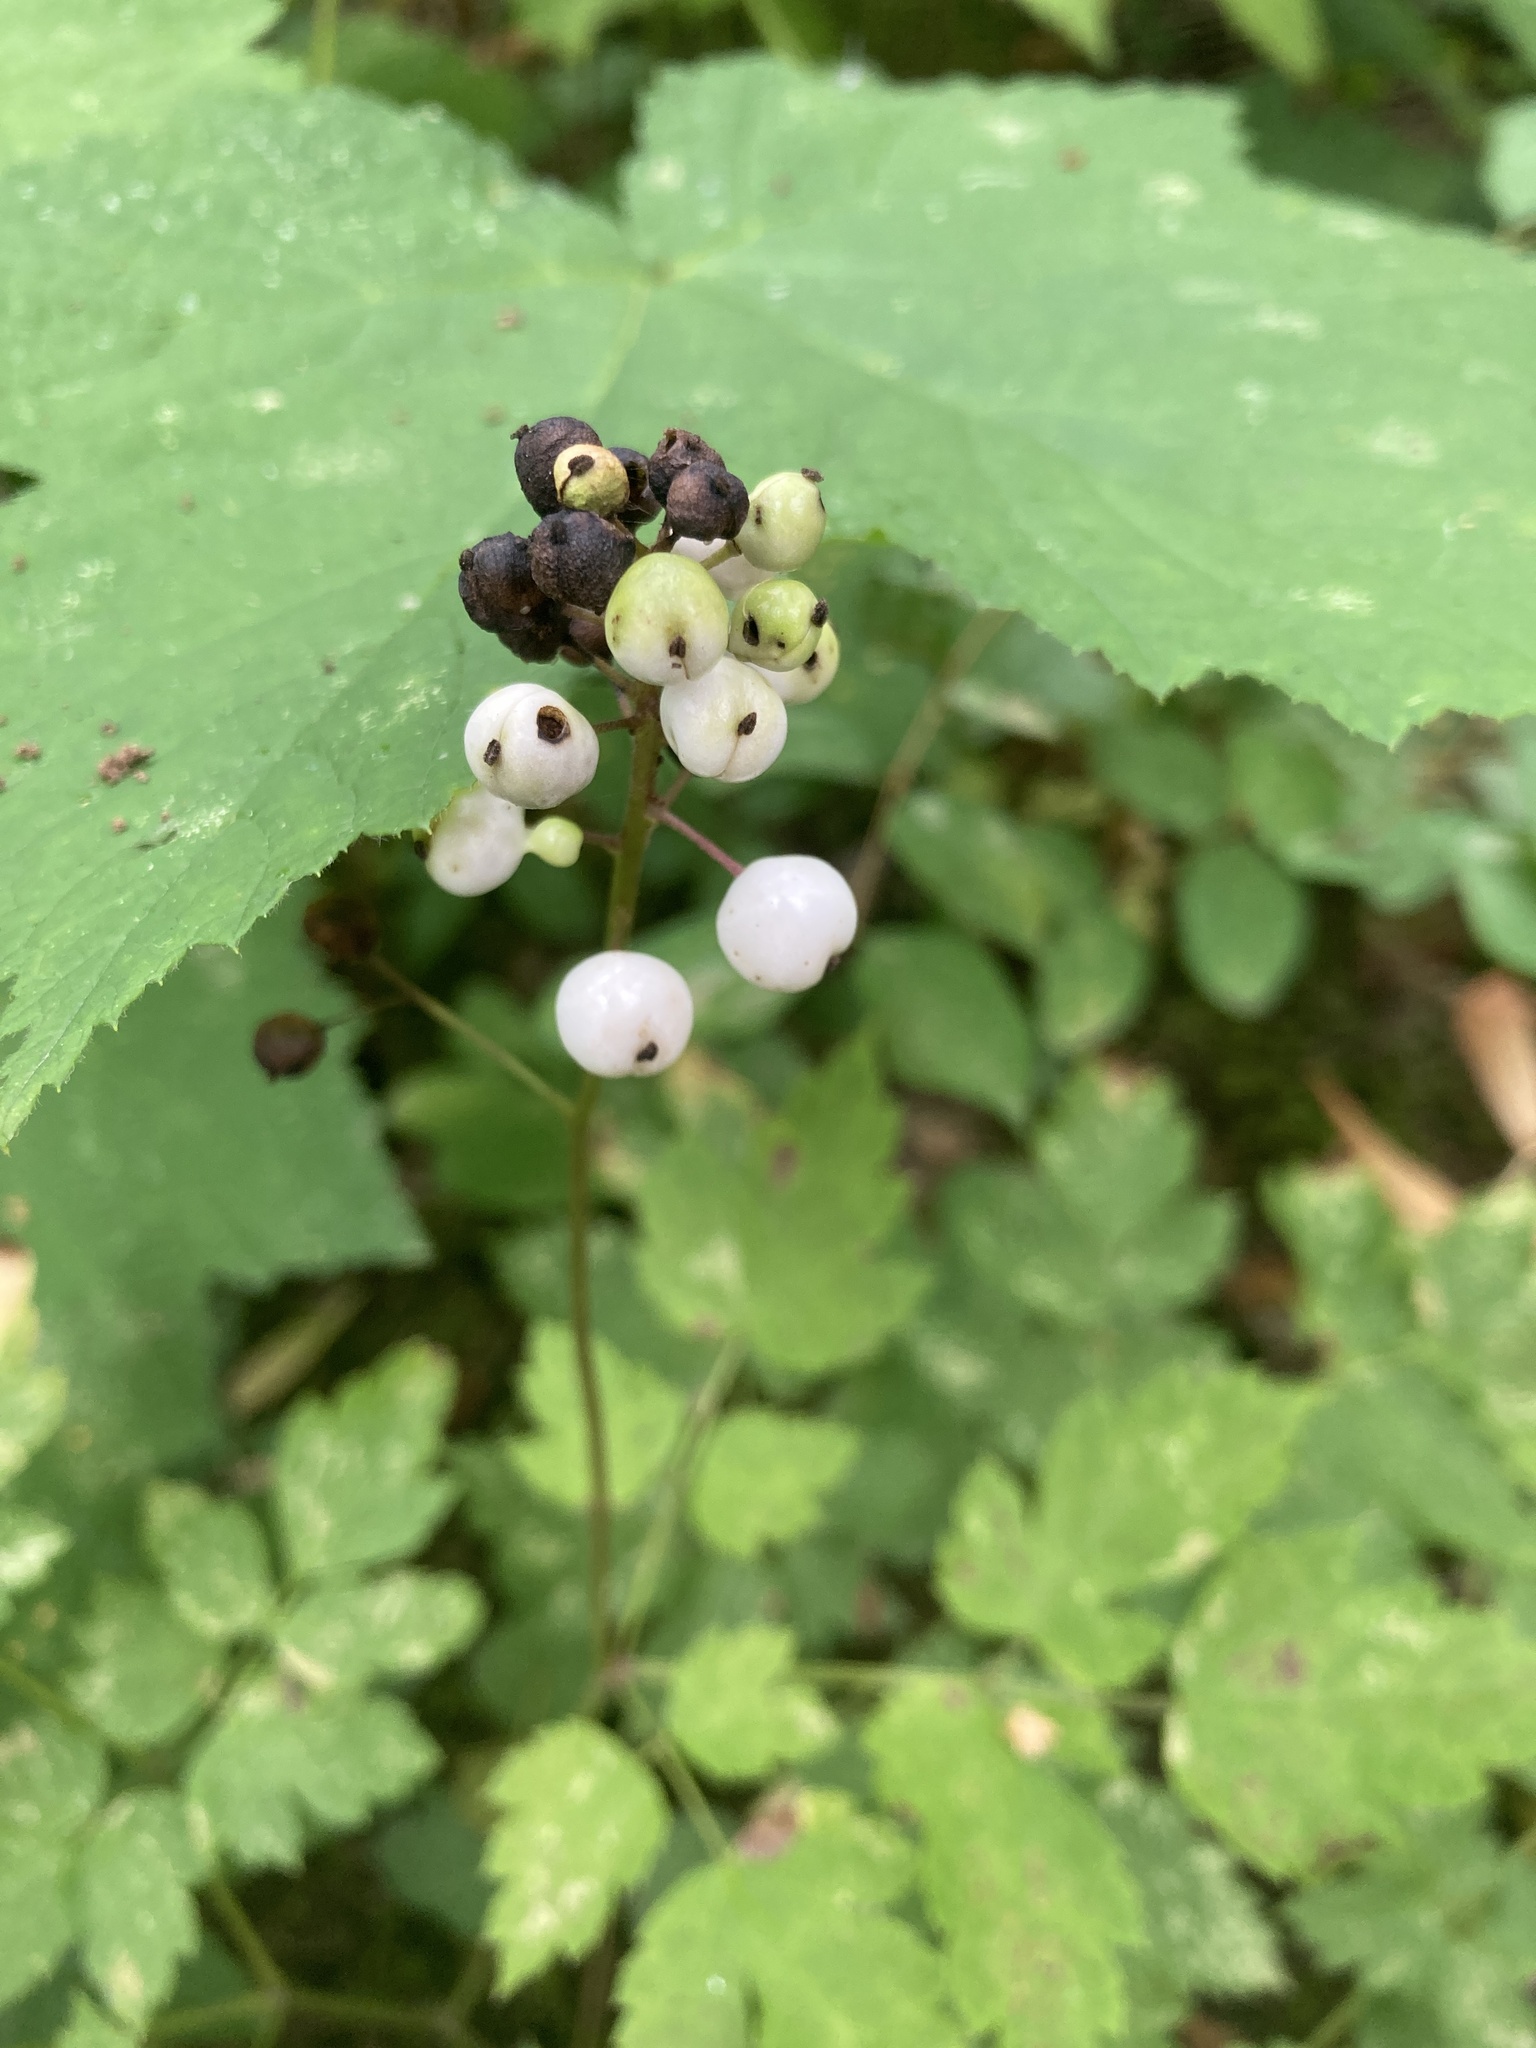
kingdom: Plantae
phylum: Tracheophyta
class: Magnoliopsida
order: Ranunculales
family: Ranunculaceae
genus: Actaea
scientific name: Actaea rubra
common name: Red baneberry
